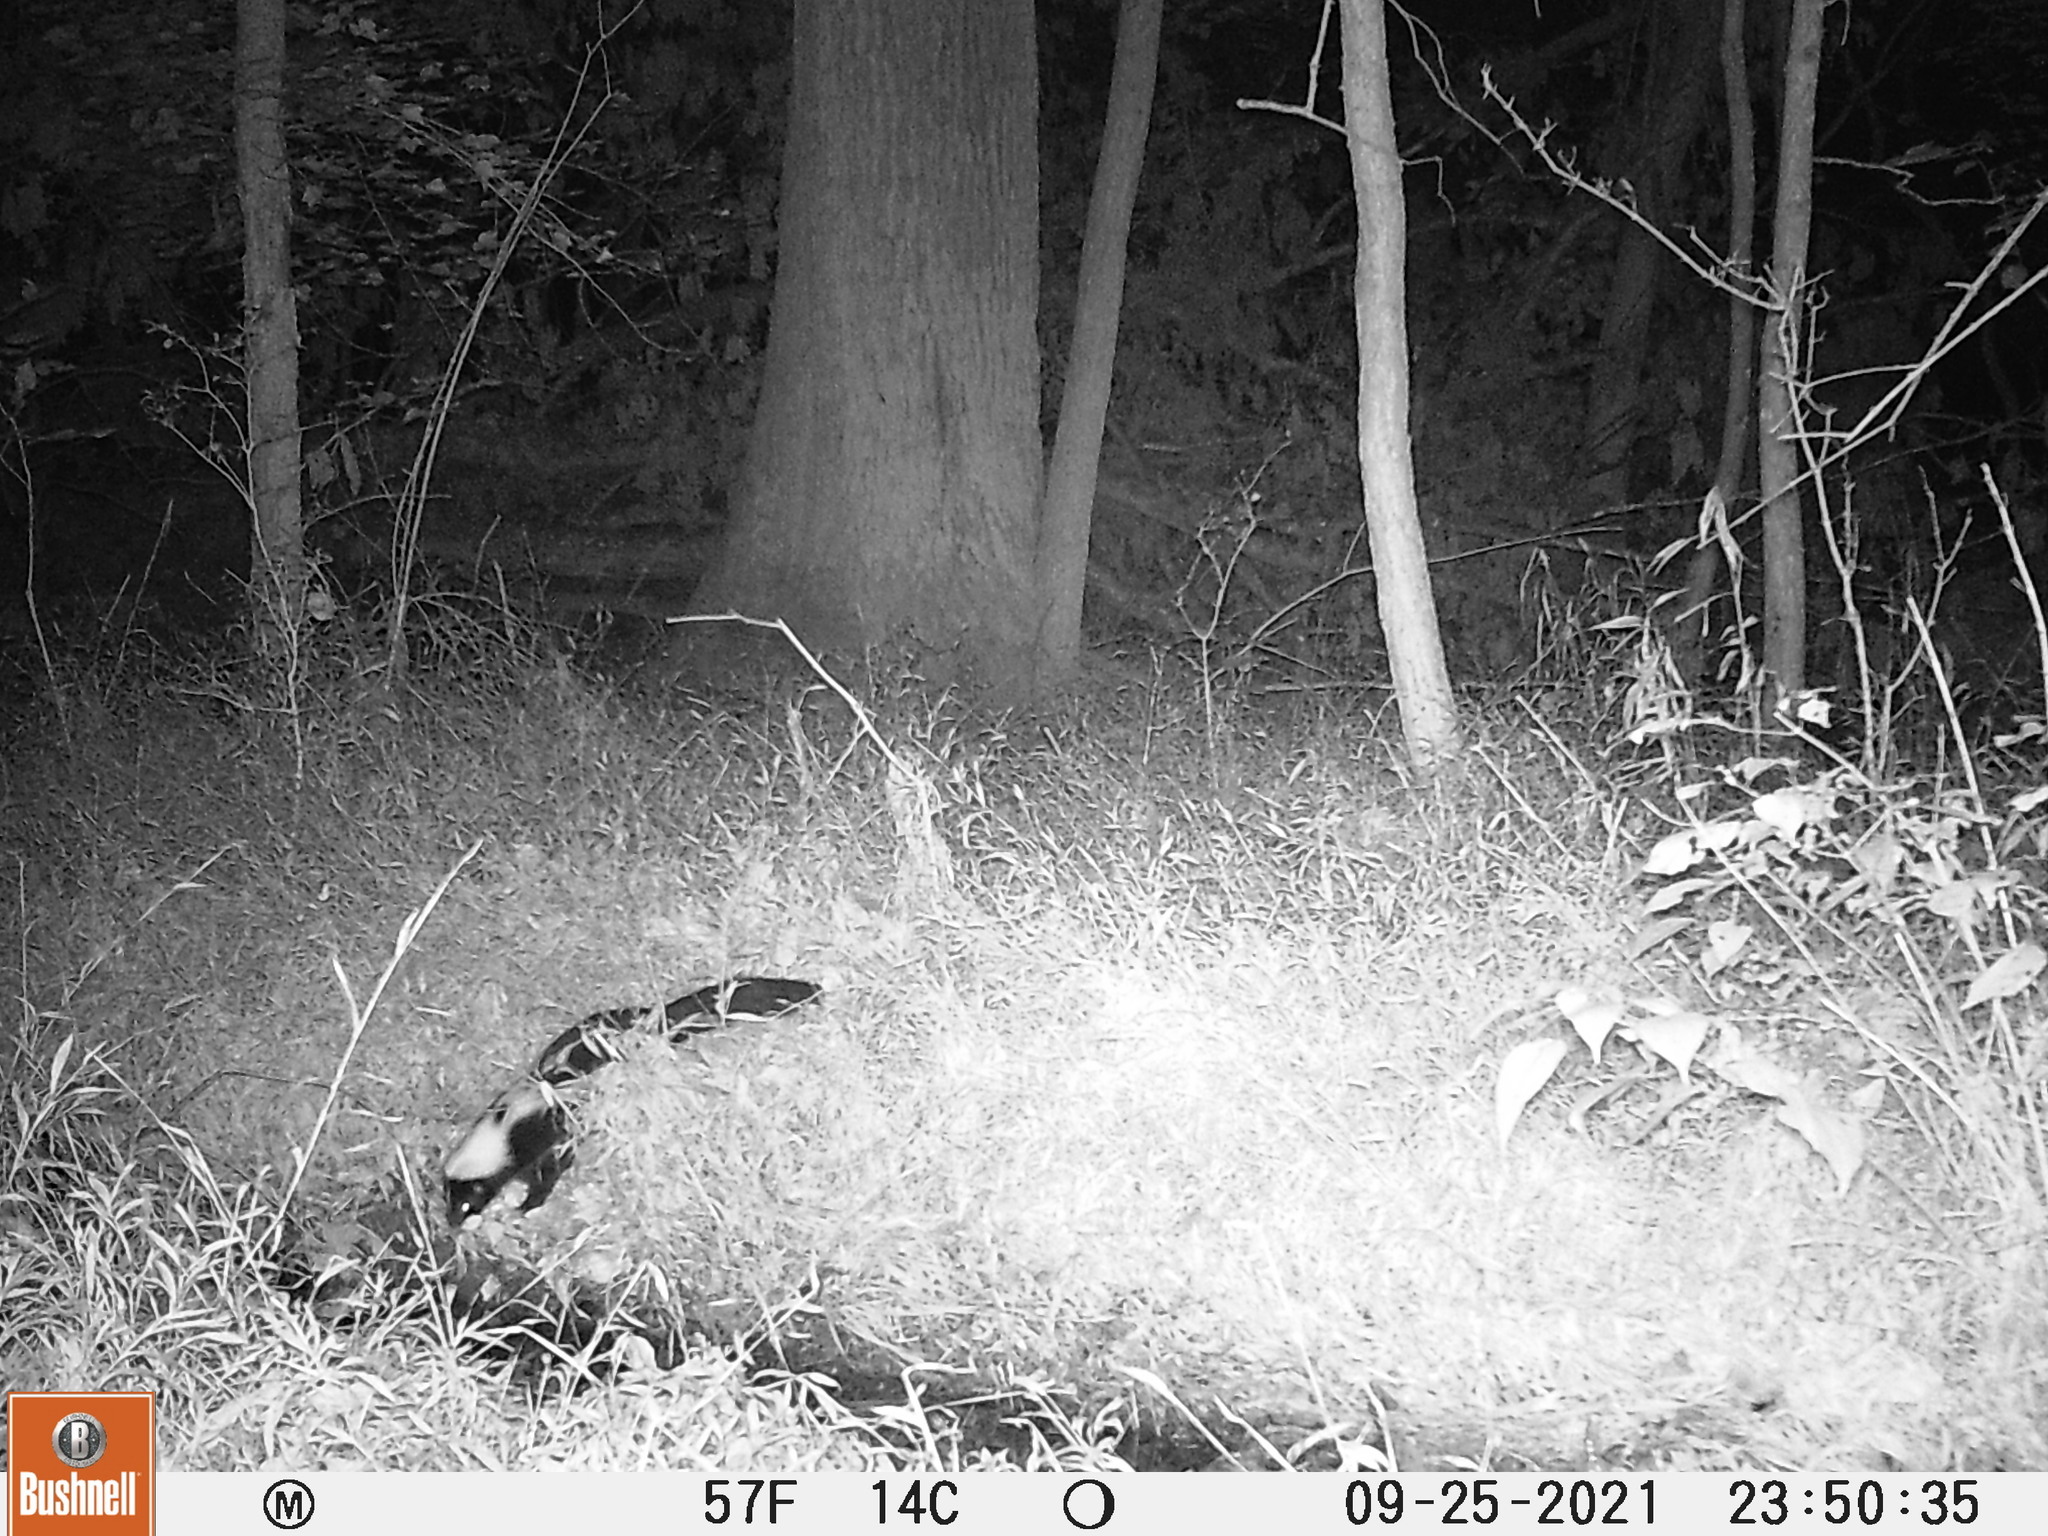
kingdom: Animalia
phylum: Chordata
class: Mammalia
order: Carnivora
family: Mephitidae
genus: Mephitis
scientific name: Mephitis mephitis
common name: Striped skunk
